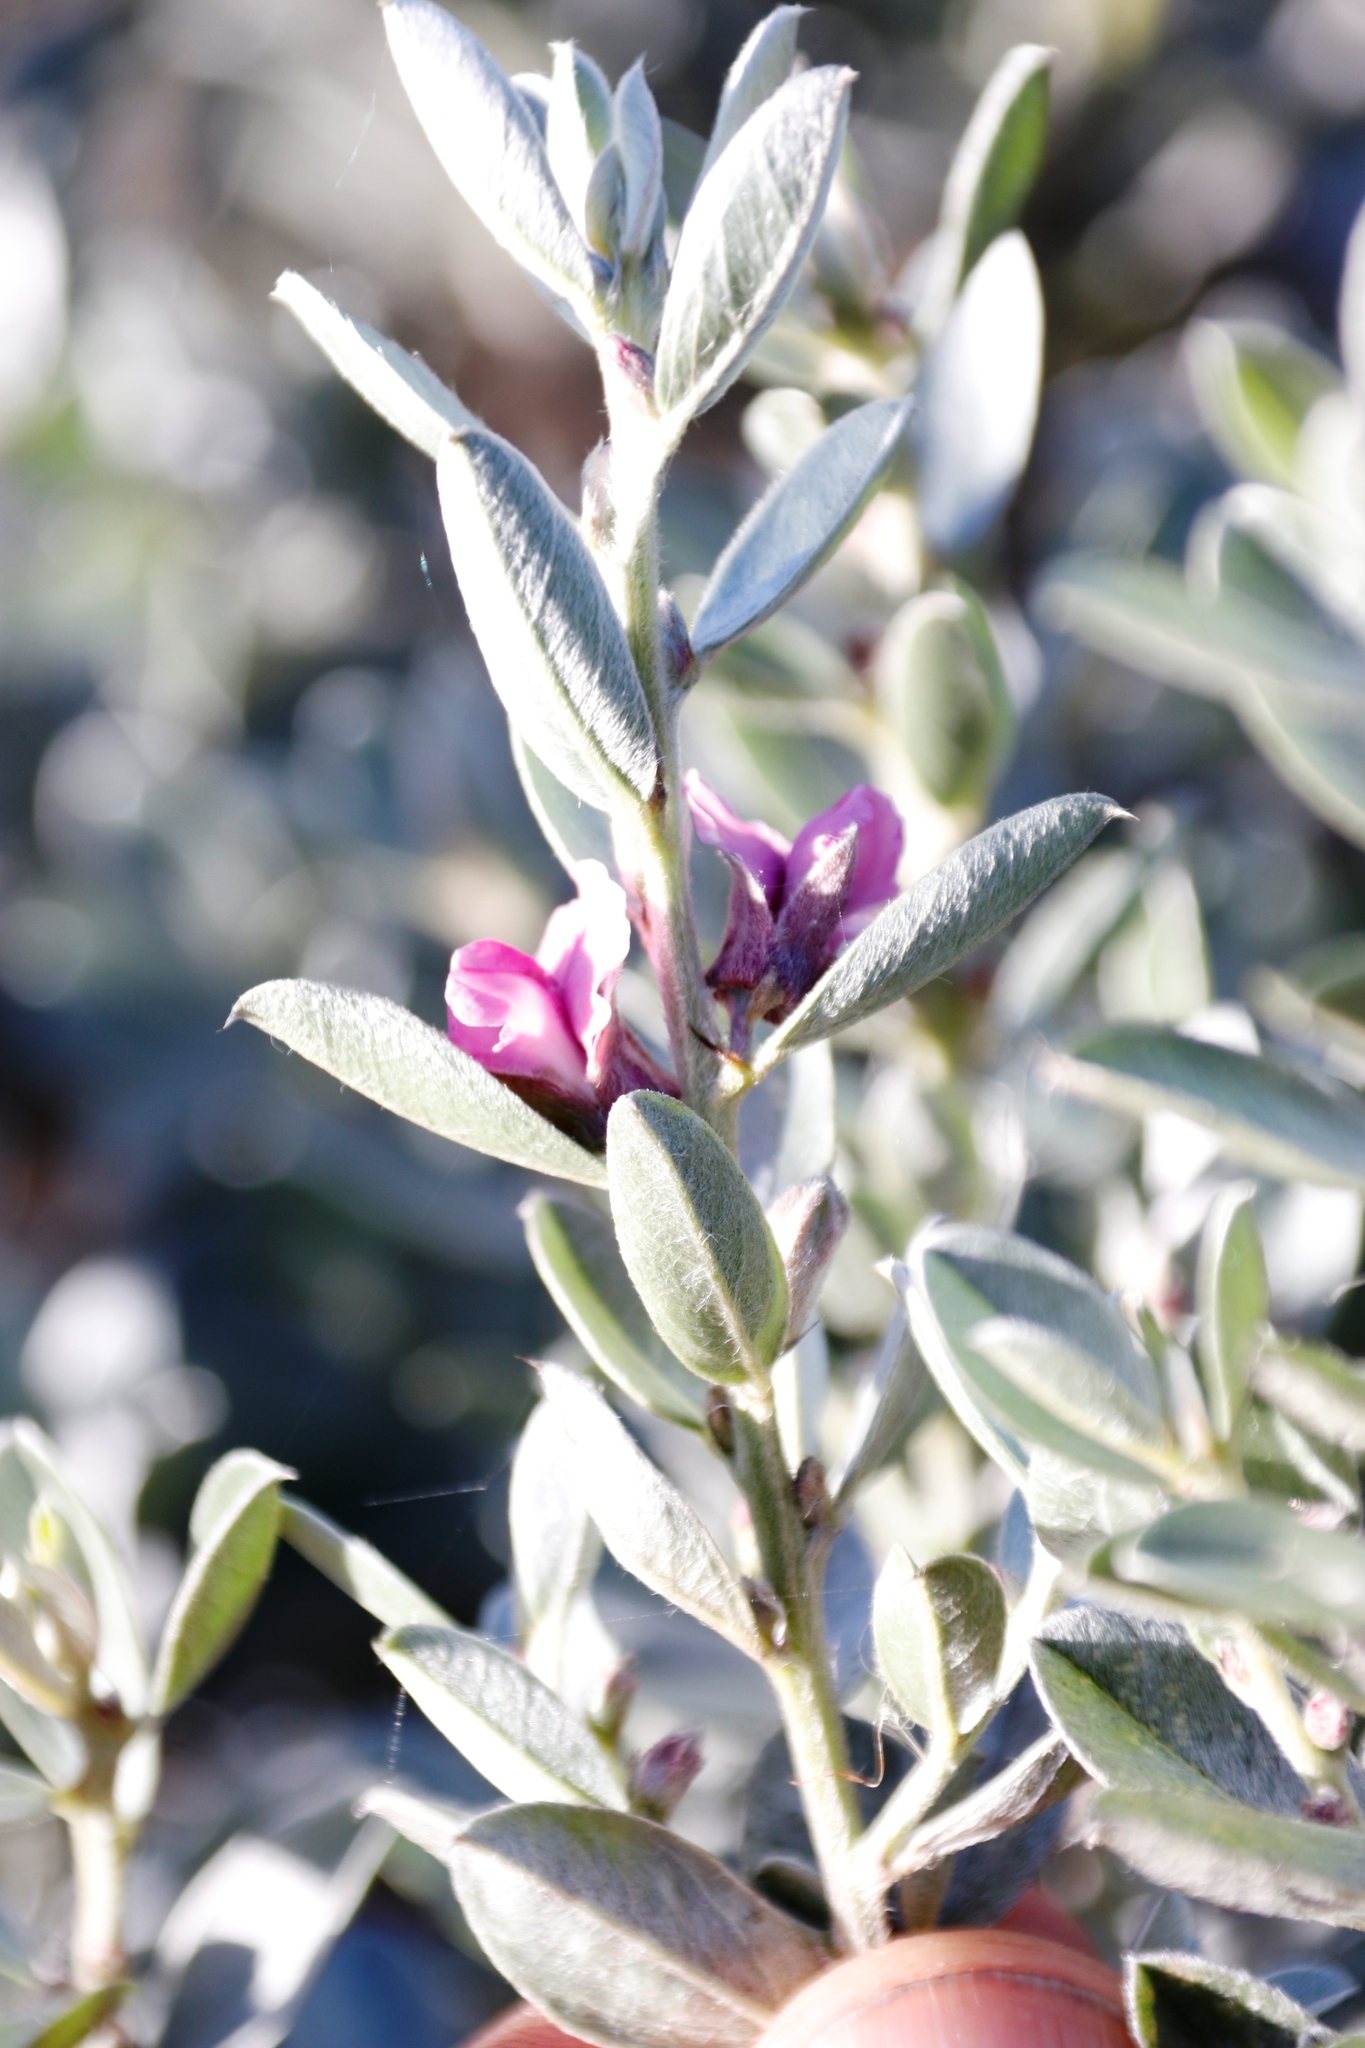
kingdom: Plantae
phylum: Tracheophyta
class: Magnoliopsida
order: Fabales
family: Fabaceae
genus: Podalyria
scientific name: Podalyria sericea
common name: Silver podalyria
